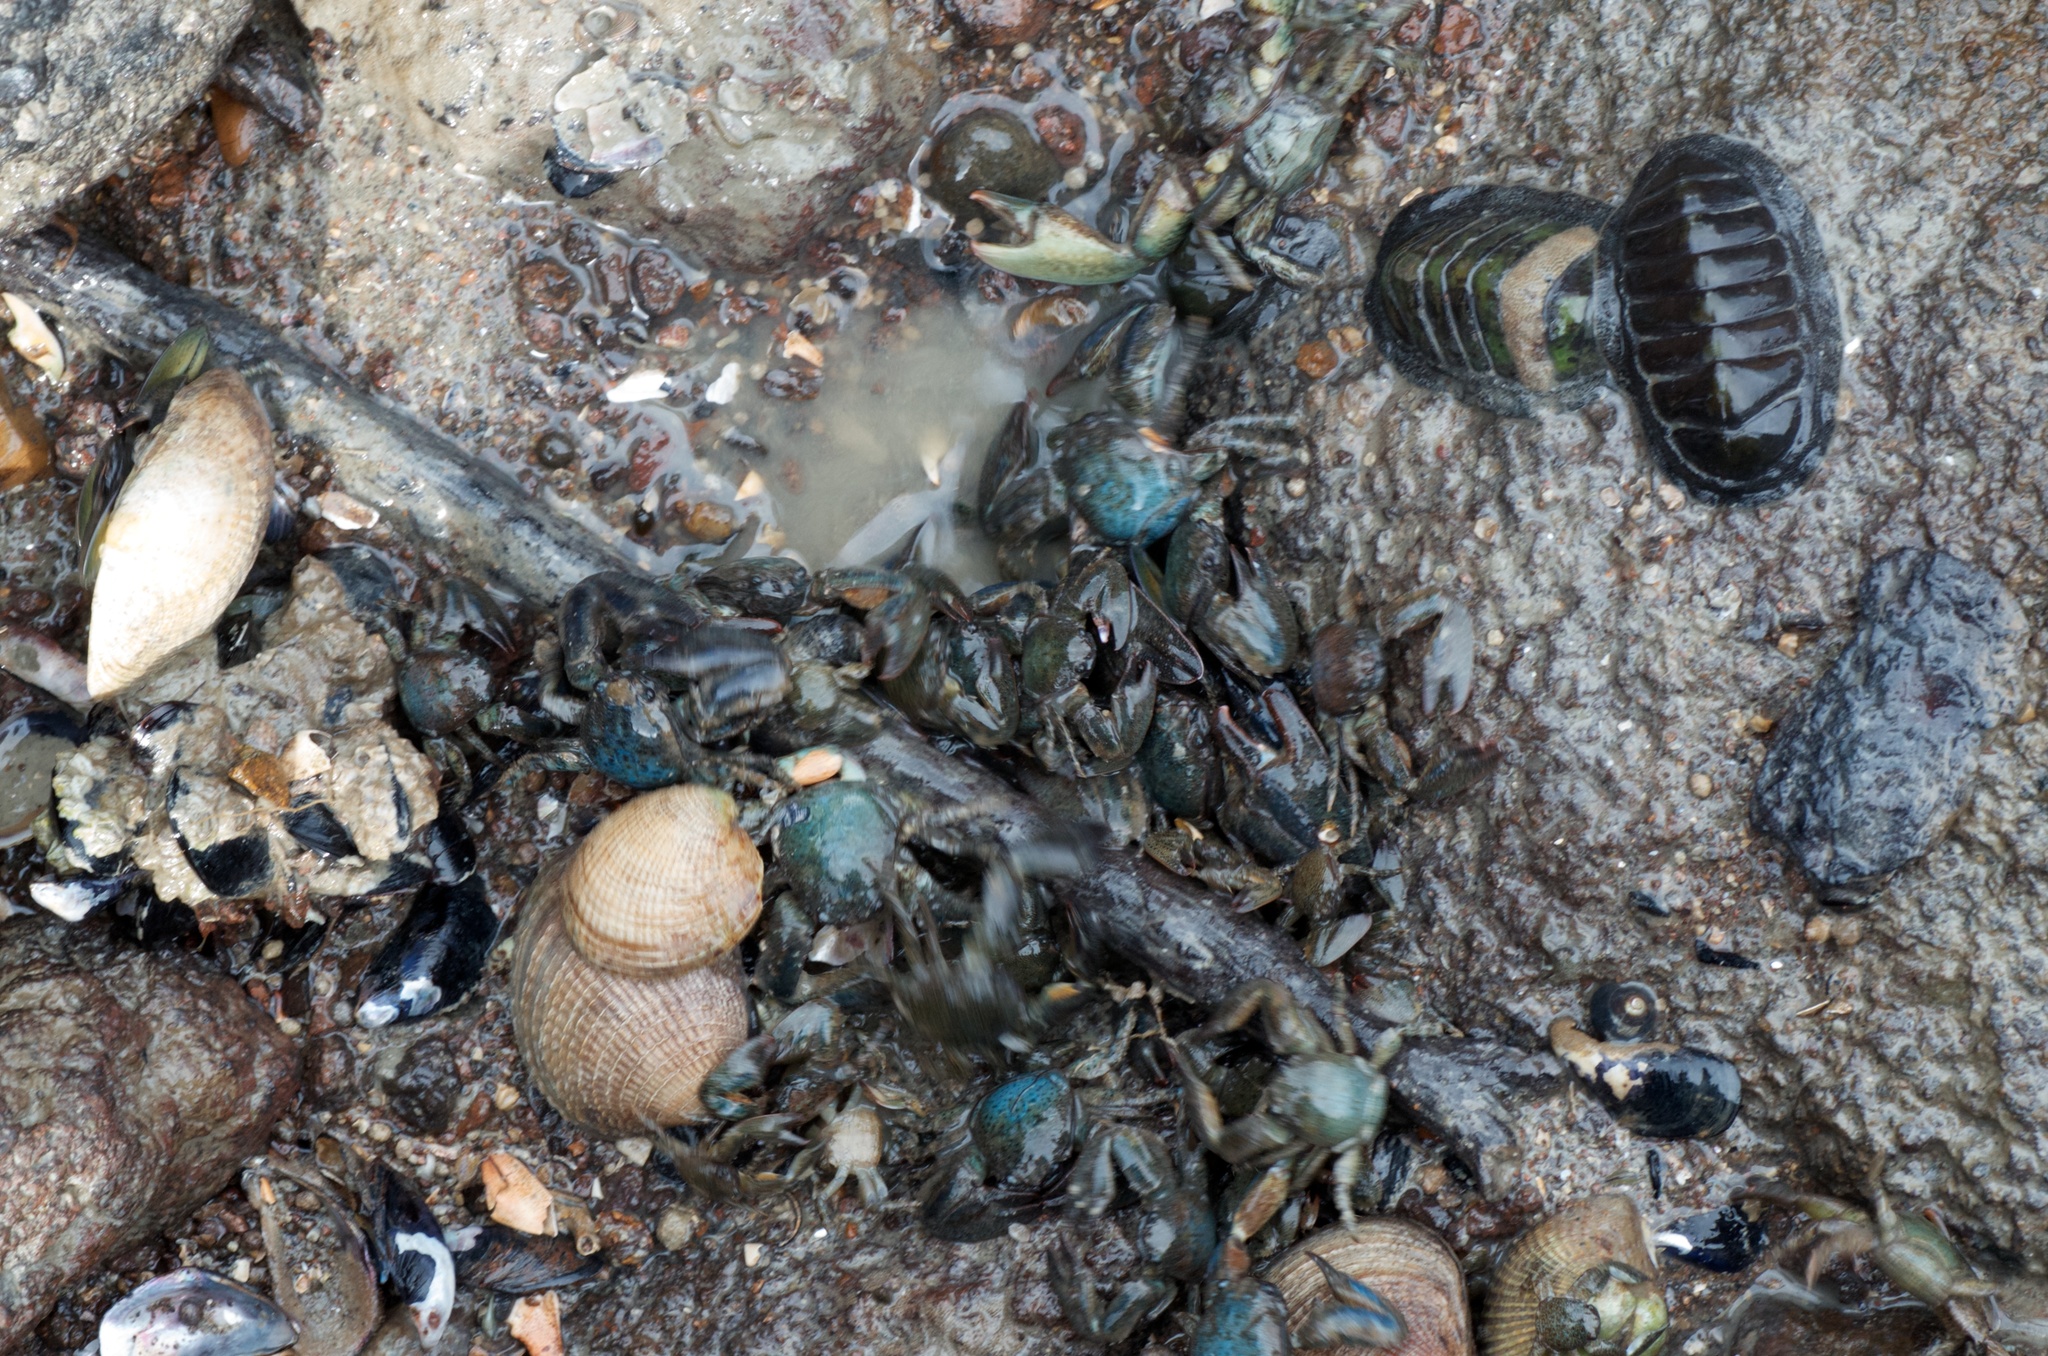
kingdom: Animalia
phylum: Arthropoda
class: Malacostraca
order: Decapoda
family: Porcellanidae
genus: Petrolisthes
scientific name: Petrolisthes elongatus
